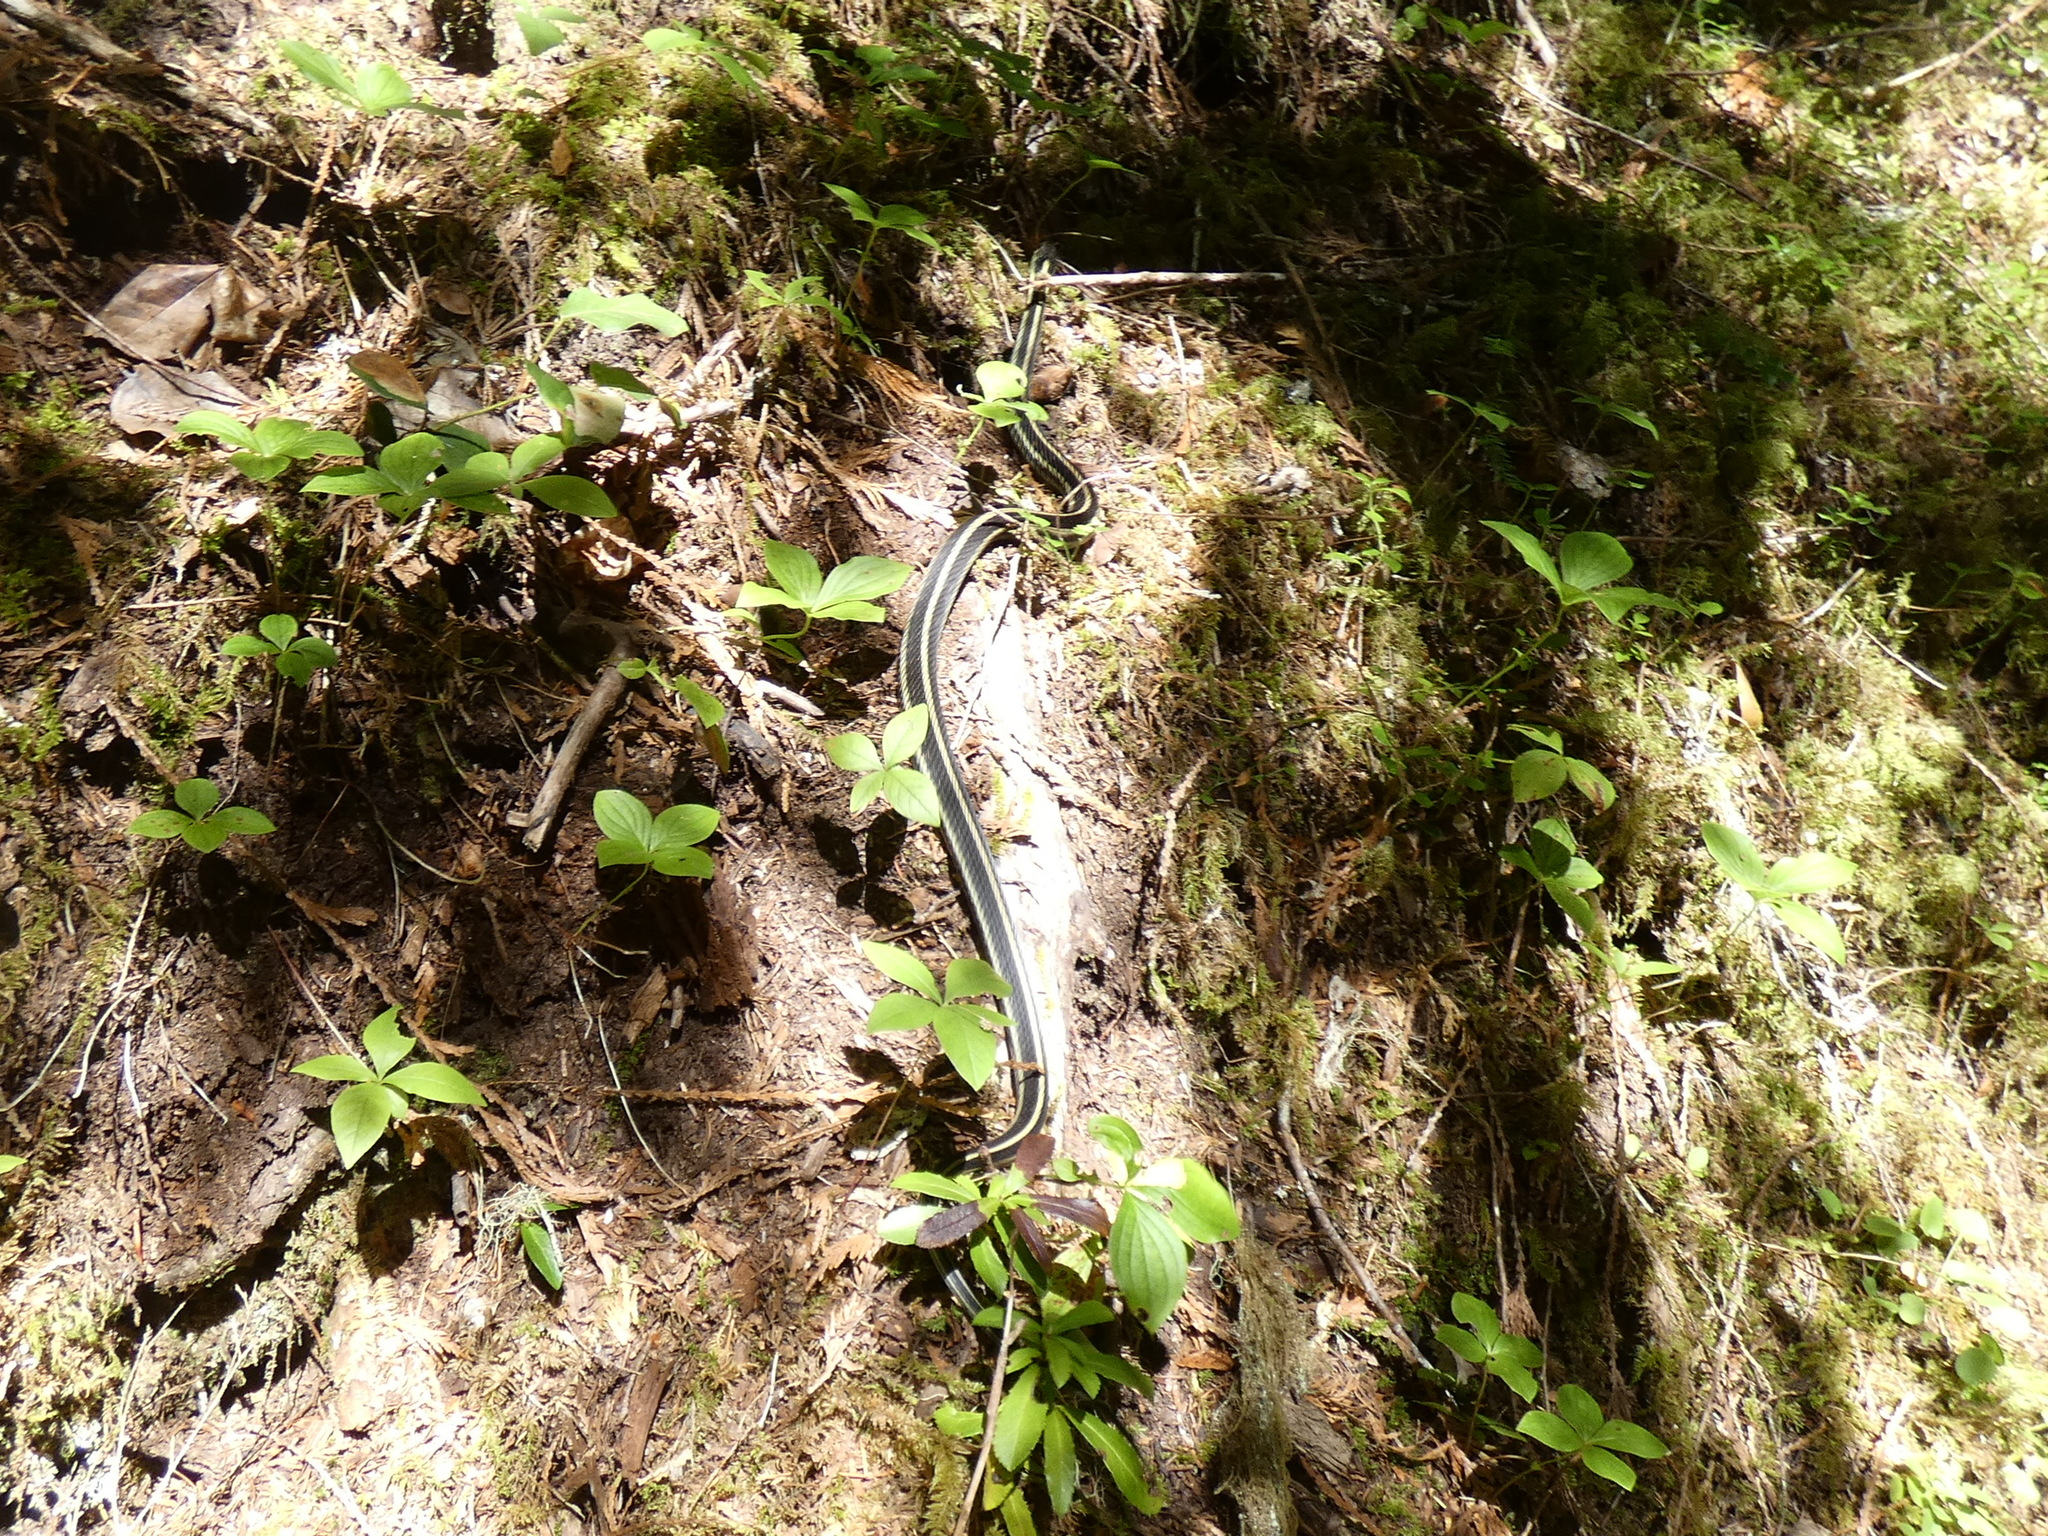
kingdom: Animalia
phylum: Chordata
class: Squamata
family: Colubridae
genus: Thamnophis
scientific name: Thamnophis sirtalis
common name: Common garter snake
